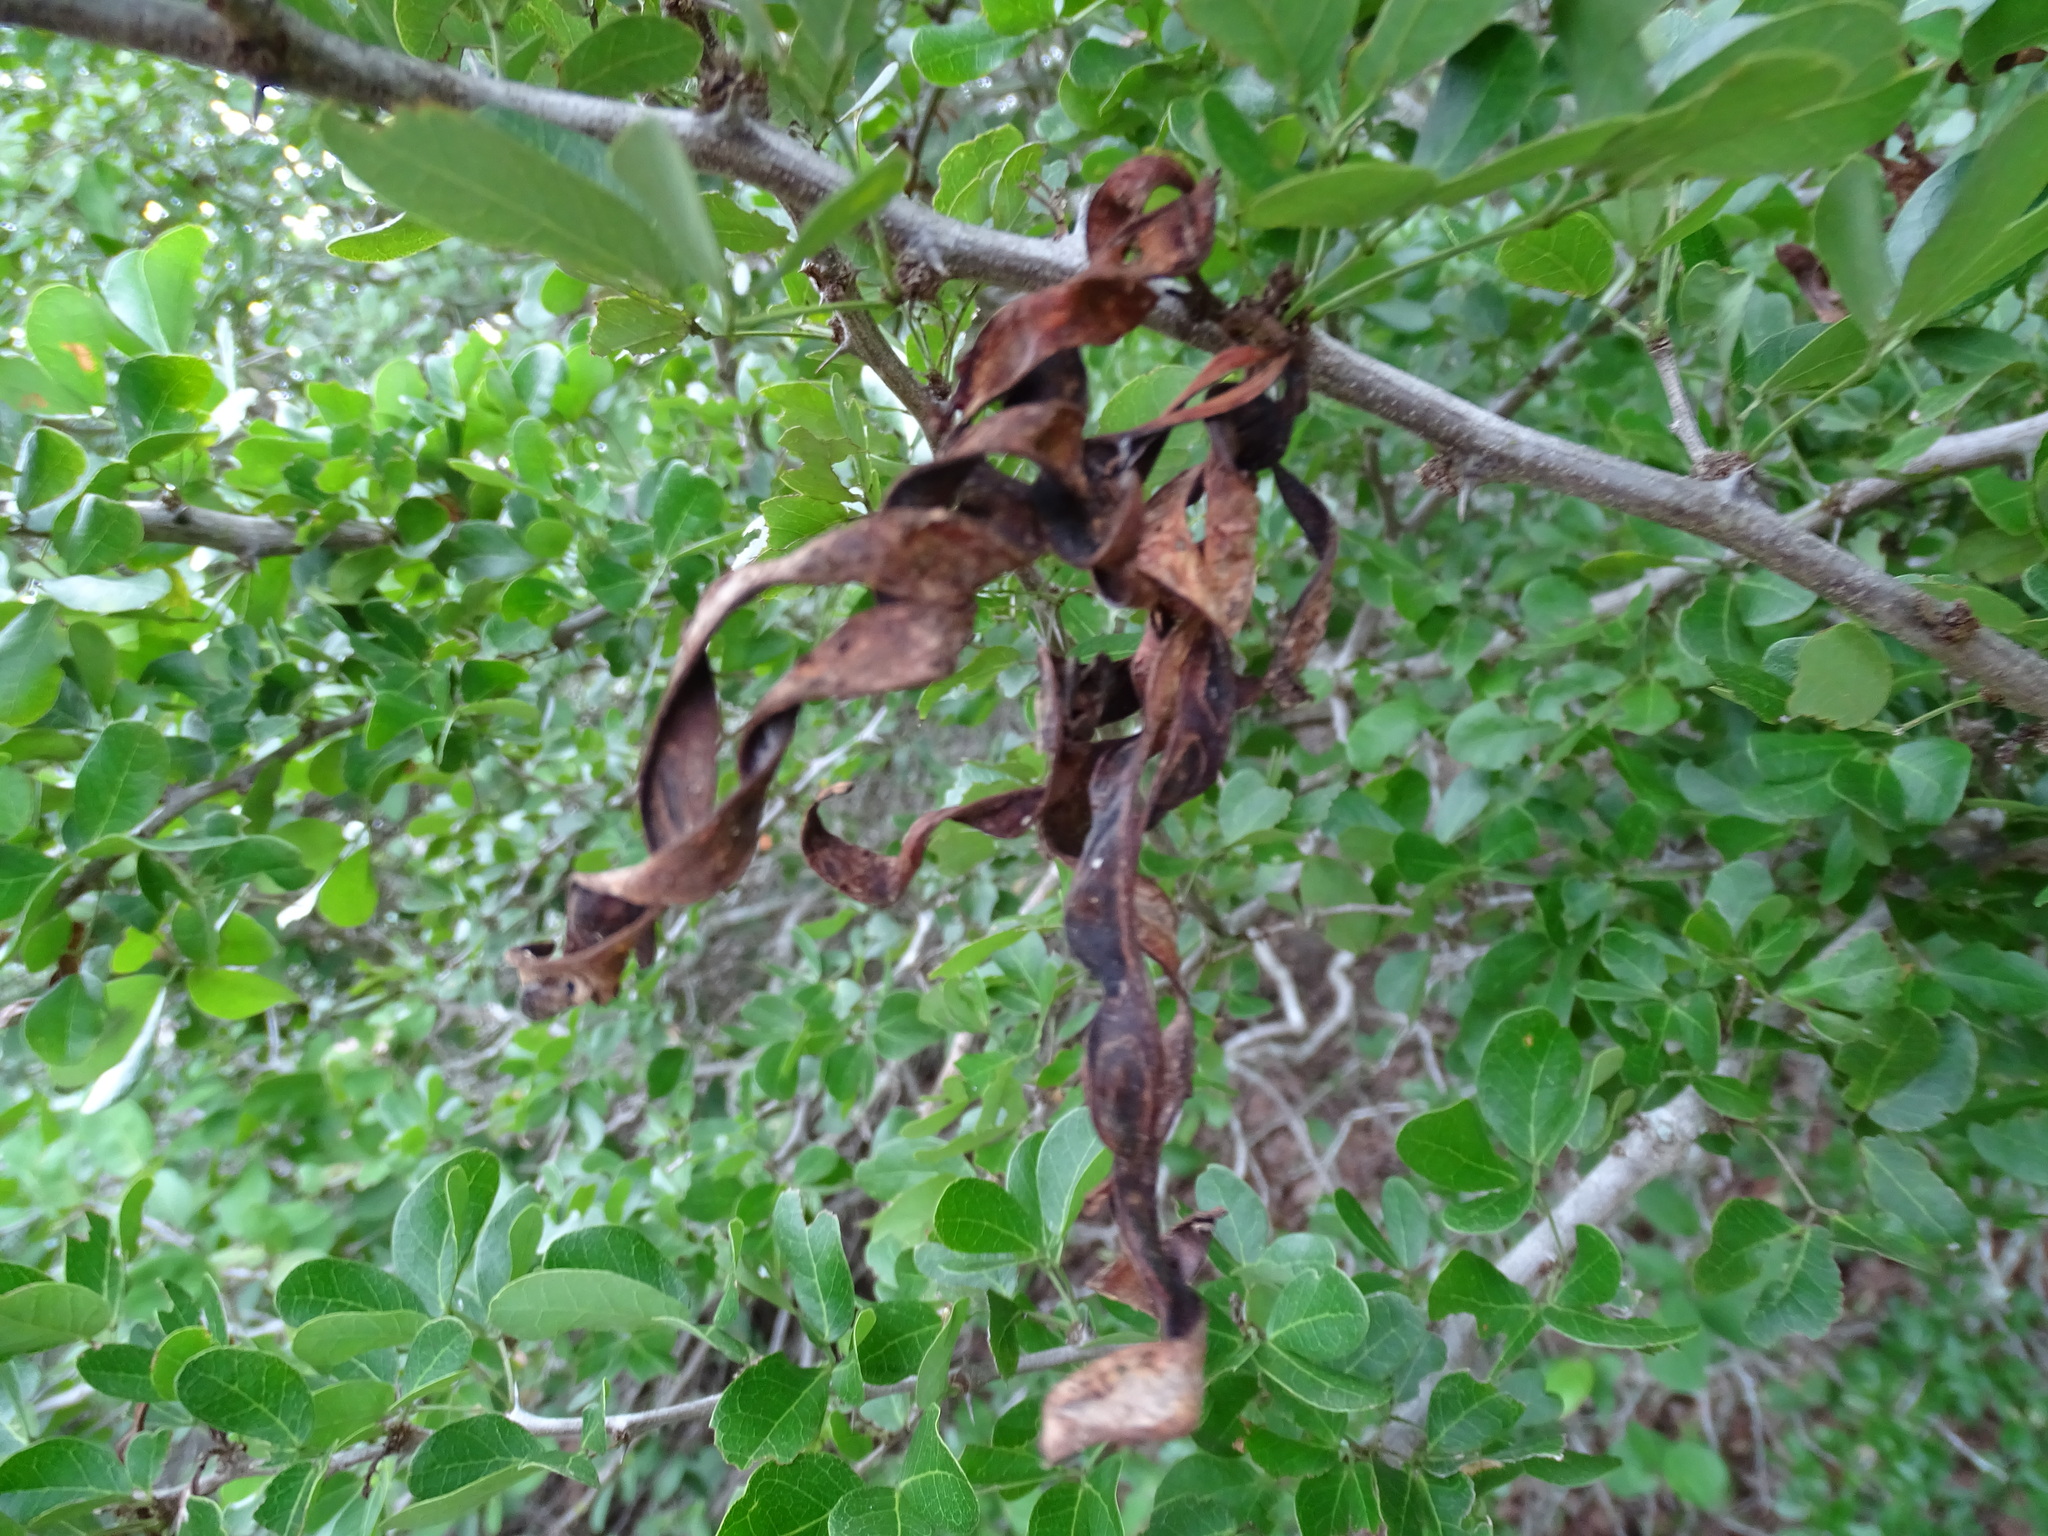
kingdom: Plantae
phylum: Tracheophyta
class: Magnoliopsida
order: Fabales
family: Fabaceae
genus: Pithecellobium
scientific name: Pithecellobium unguis-cati
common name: Cat's-claw
